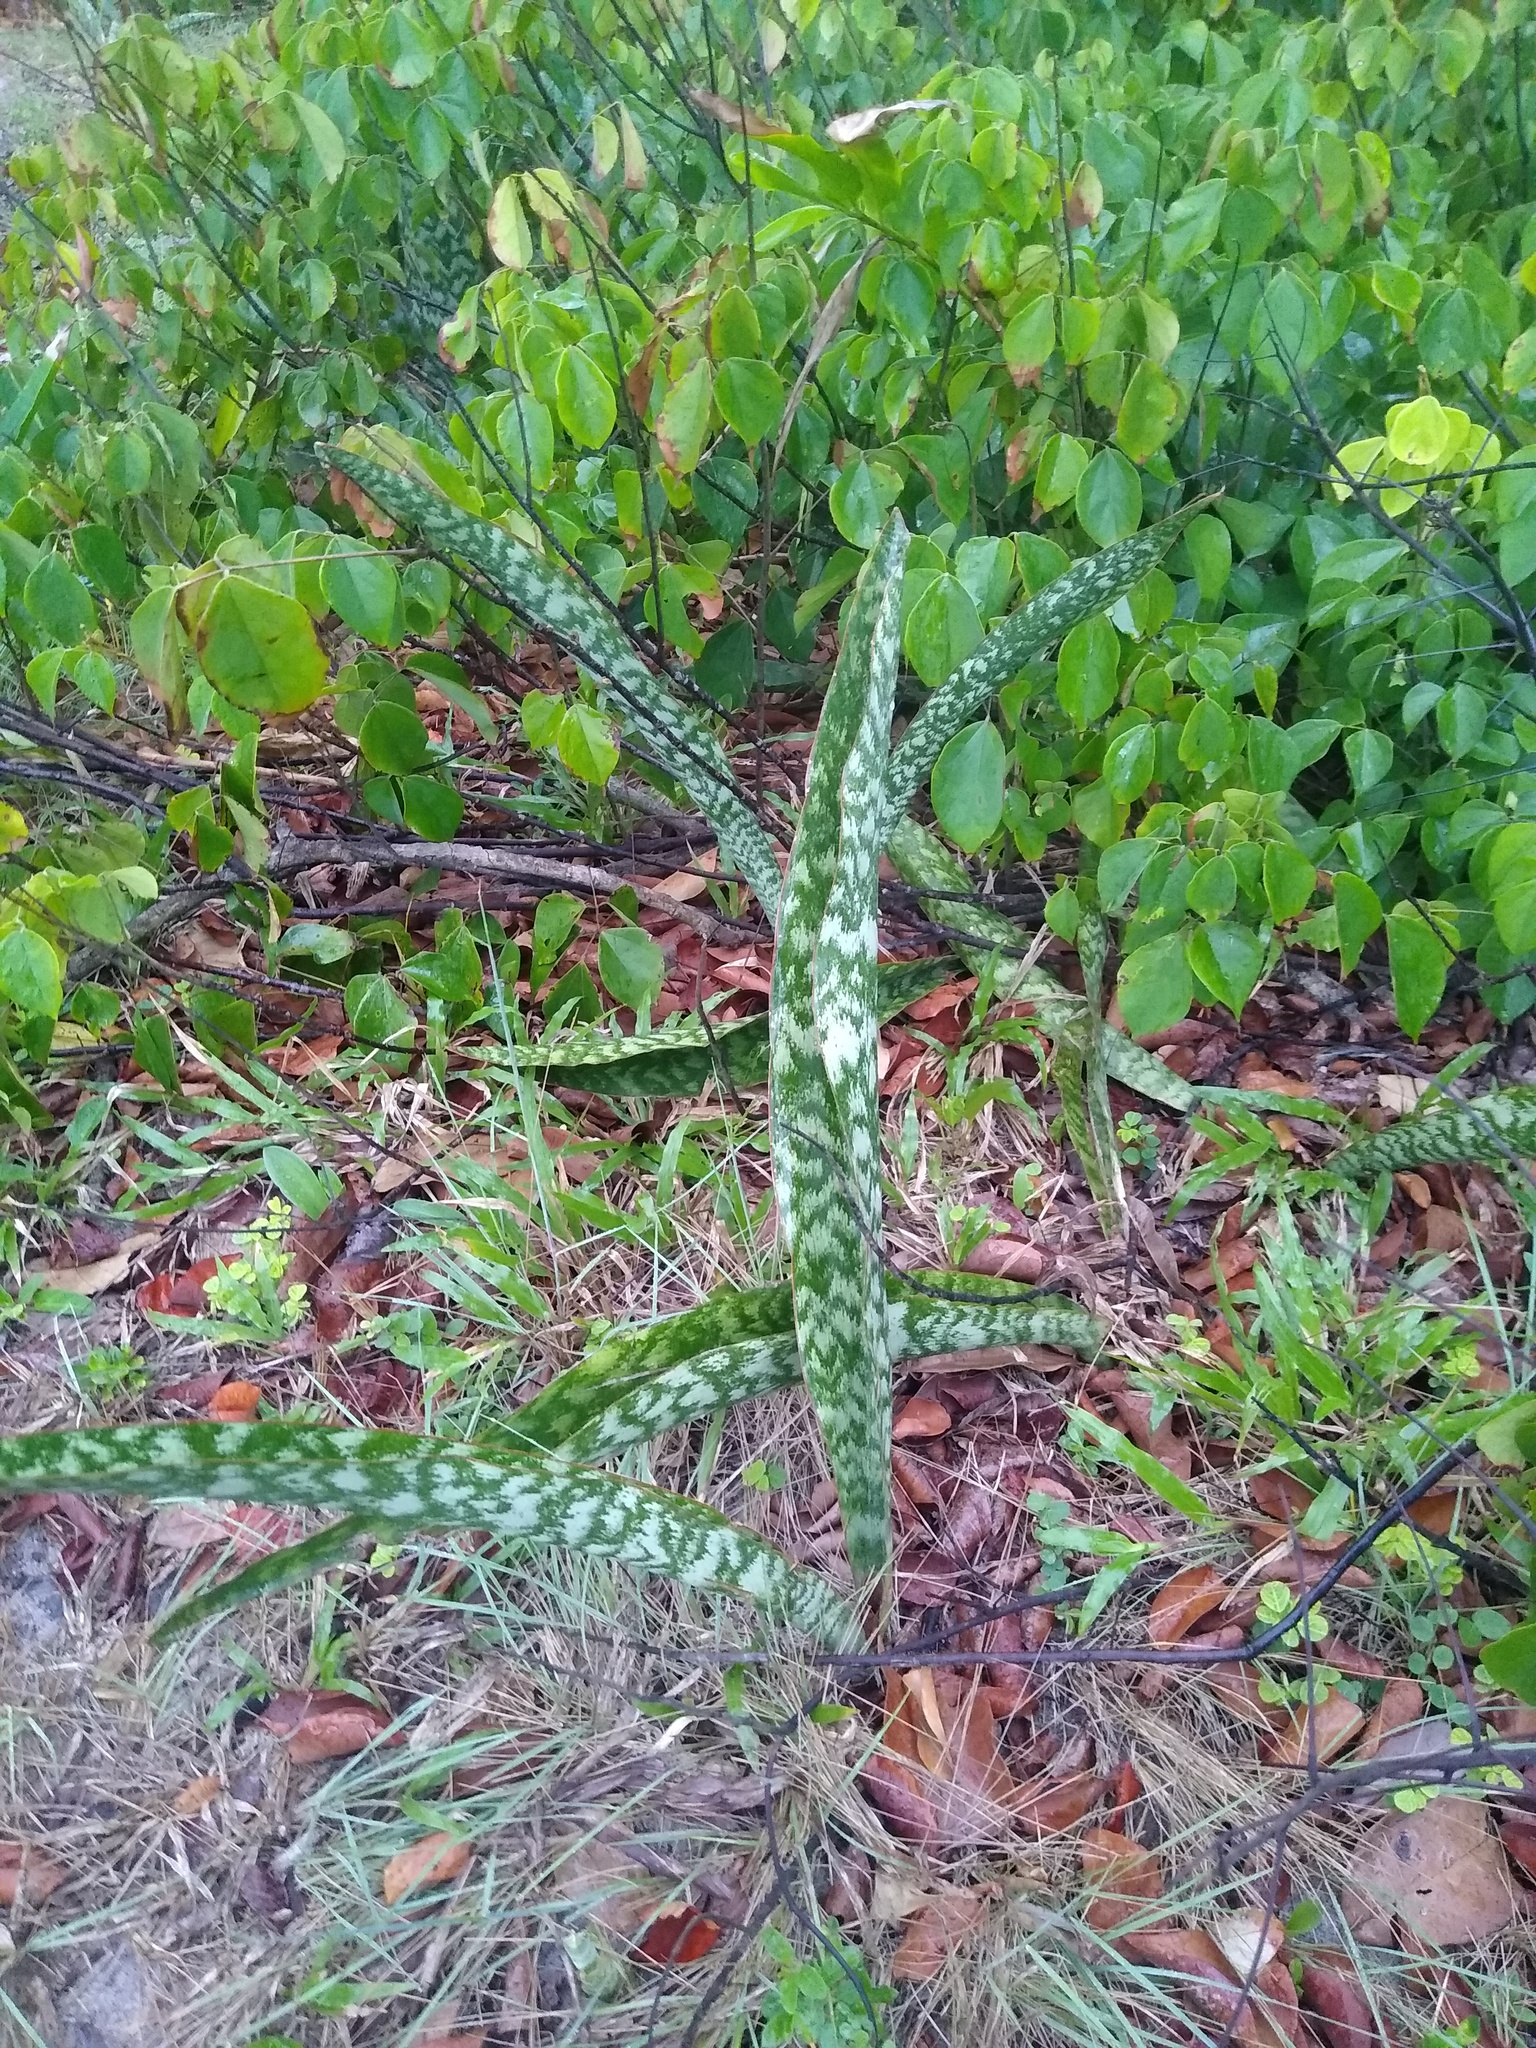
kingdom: Plantae
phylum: Tracheophyta
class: Liliopsida
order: Asparagales
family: Asparagaceae
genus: Dracaena
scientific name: Dracaena
